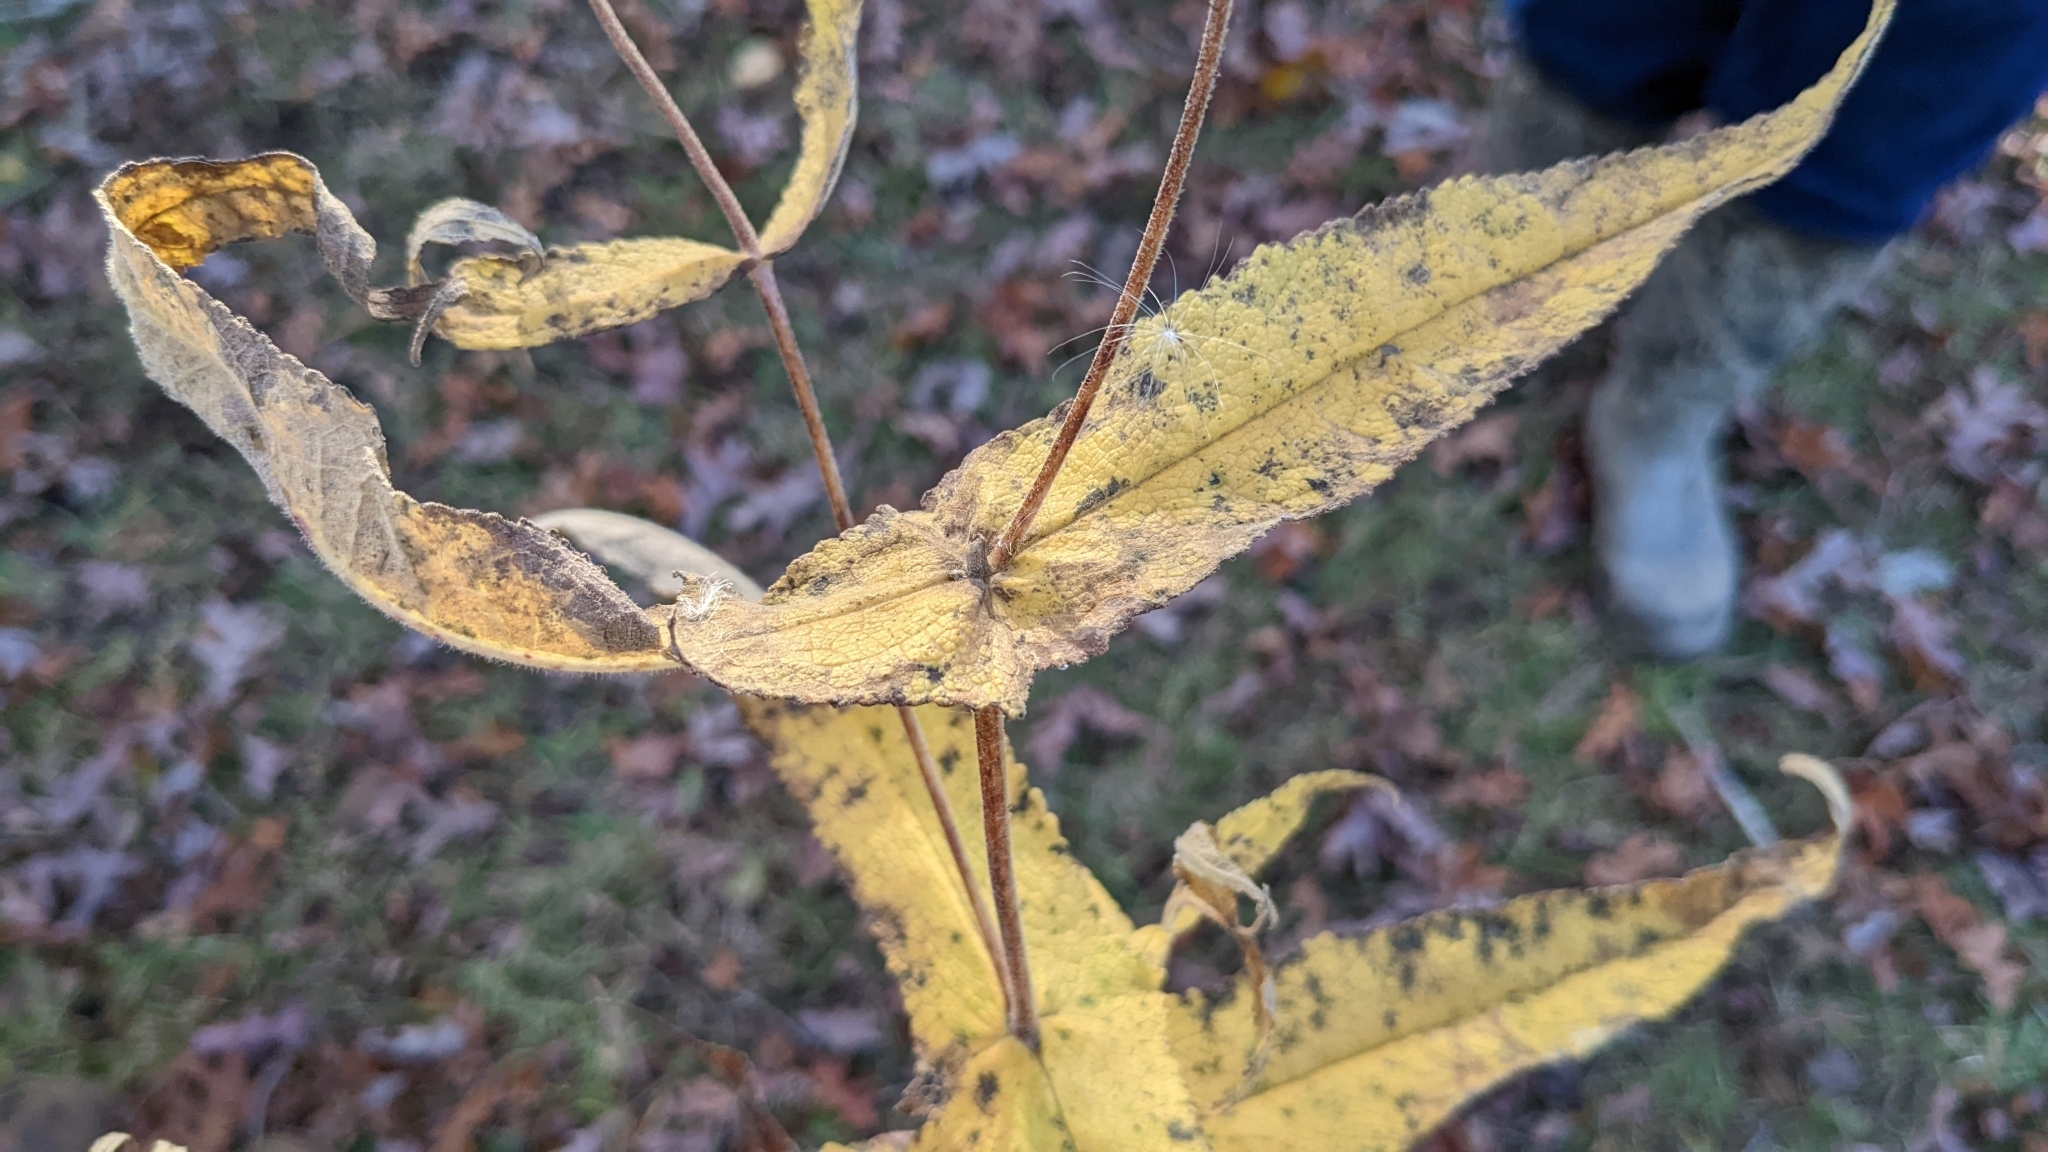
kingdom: Plantae
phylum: Tracheophyta
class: Magnoliopsida
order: Asterales
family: Asteraceae
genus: Eupatorium
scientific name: Eupatorium perfoliatum
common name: Boneset
